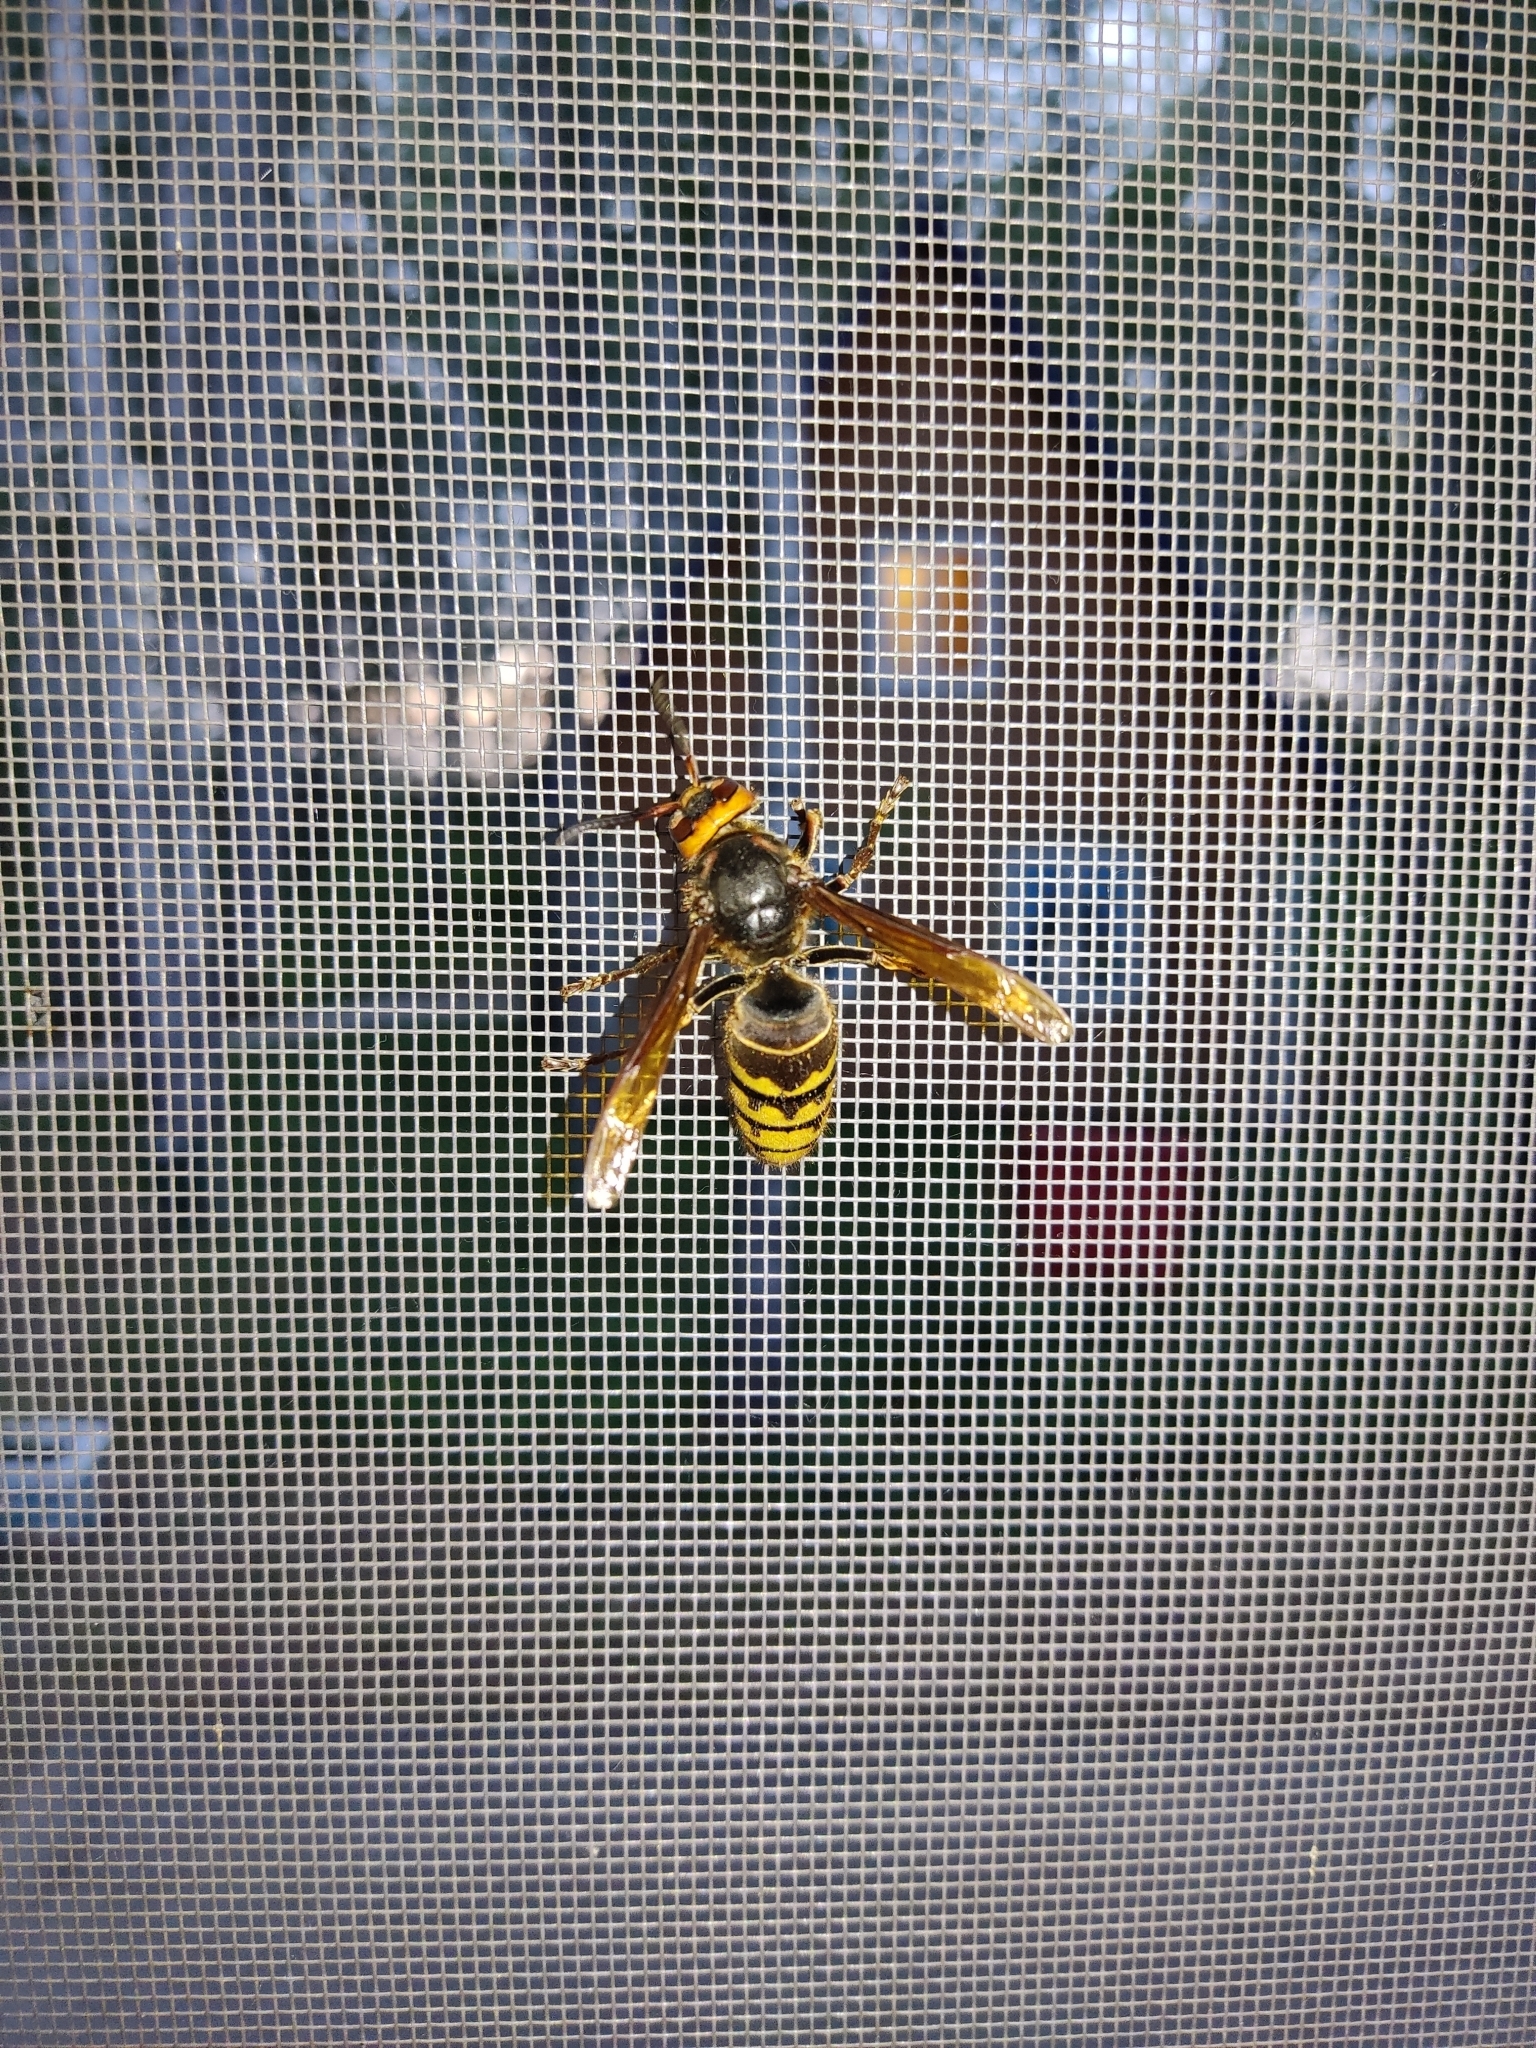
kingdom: Animalia
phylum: Arthropoda
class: Insecta
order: Hymenoptera
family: Vespidae
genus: Vespa
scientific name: Vespa crabro
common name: Hornet
